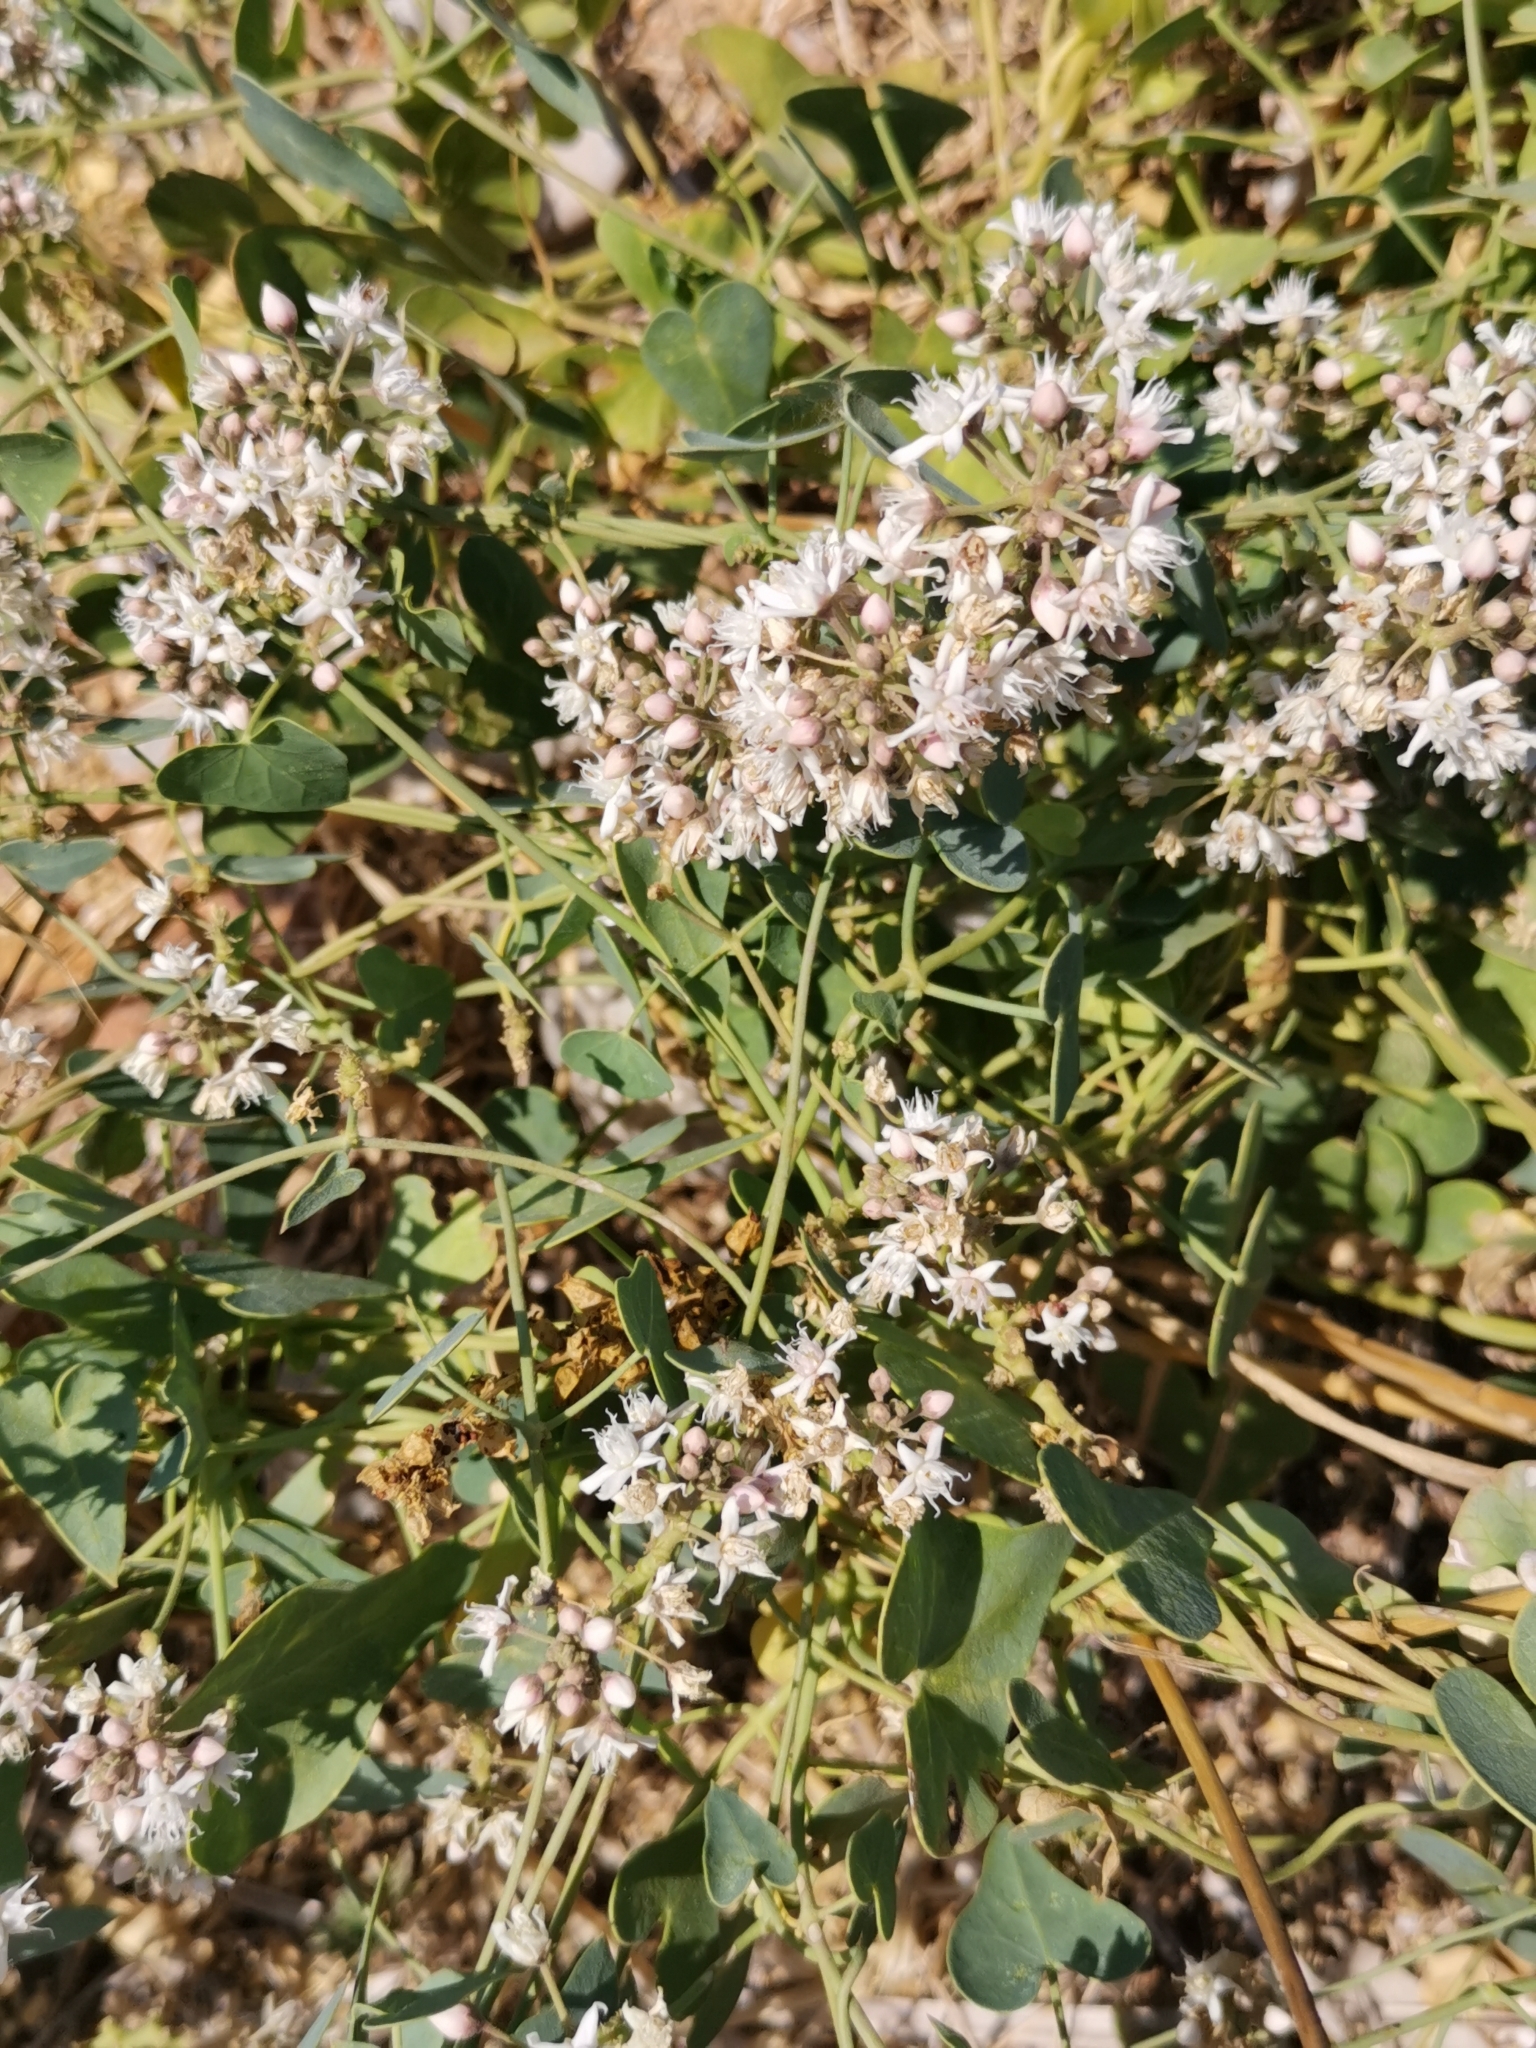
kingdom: Plantae
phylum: Tracheophyta
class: Magnoliopsida
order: Gentianales
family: Apocynaceae
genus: Cynanchum
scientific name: Cynanchum acutum
